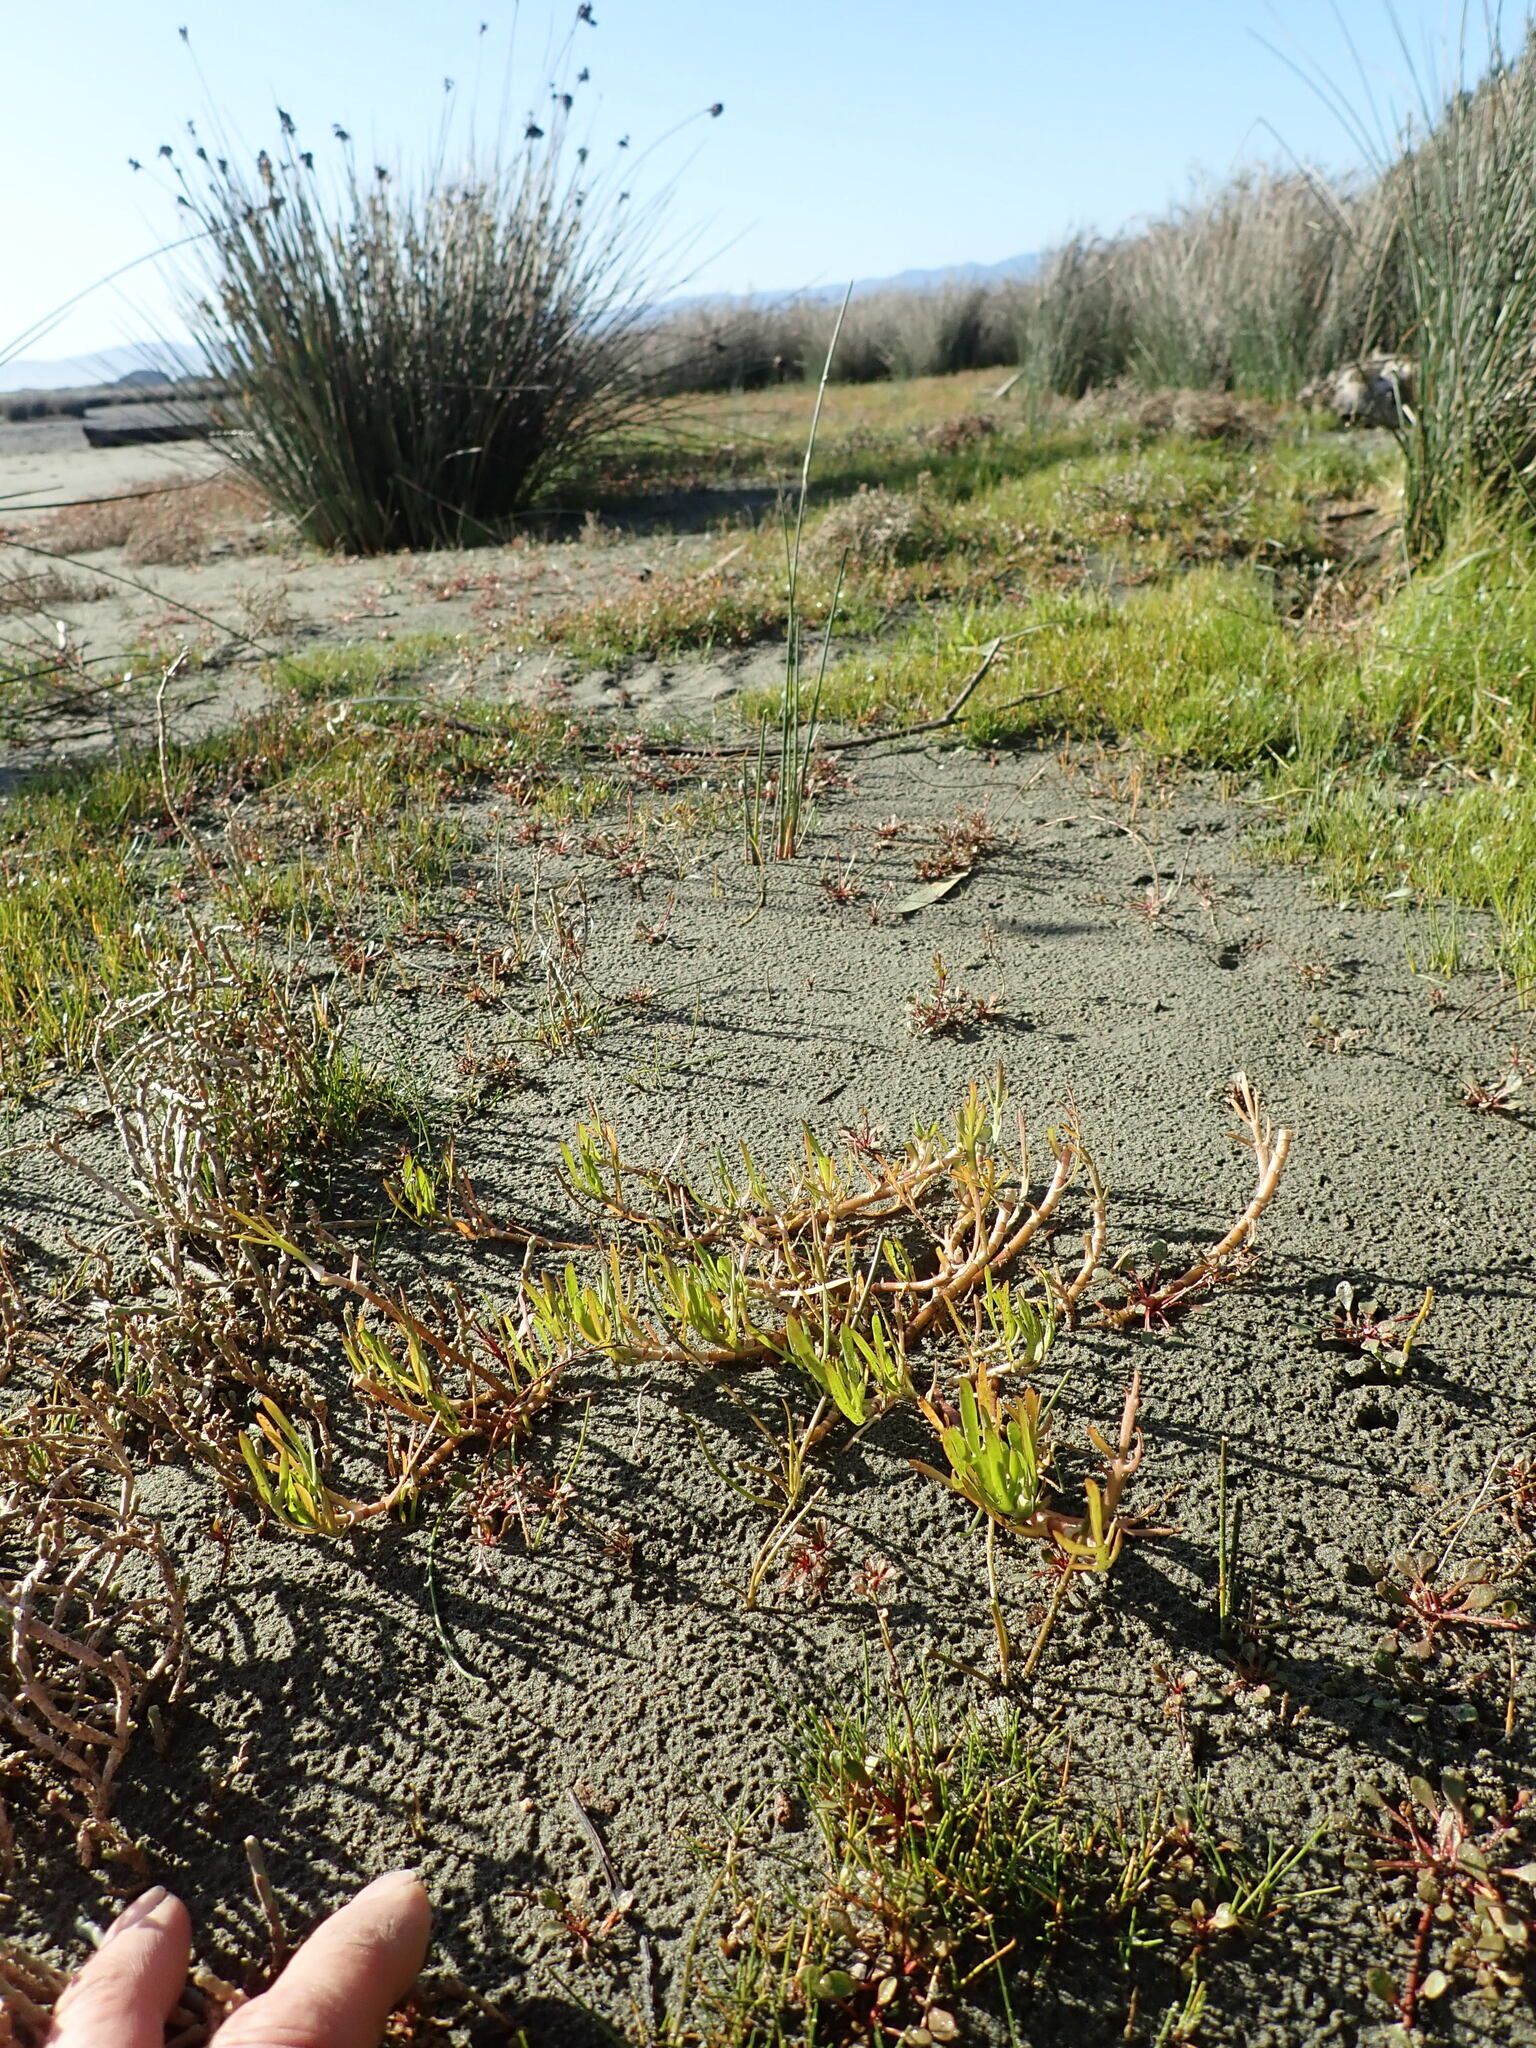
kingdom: Plantae
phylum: Tracheophyta
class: Magnoliopsida
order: Asterales
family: Asteraceae
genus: Cotula
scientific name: Cotula coronopifolia
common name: Buttonweed
